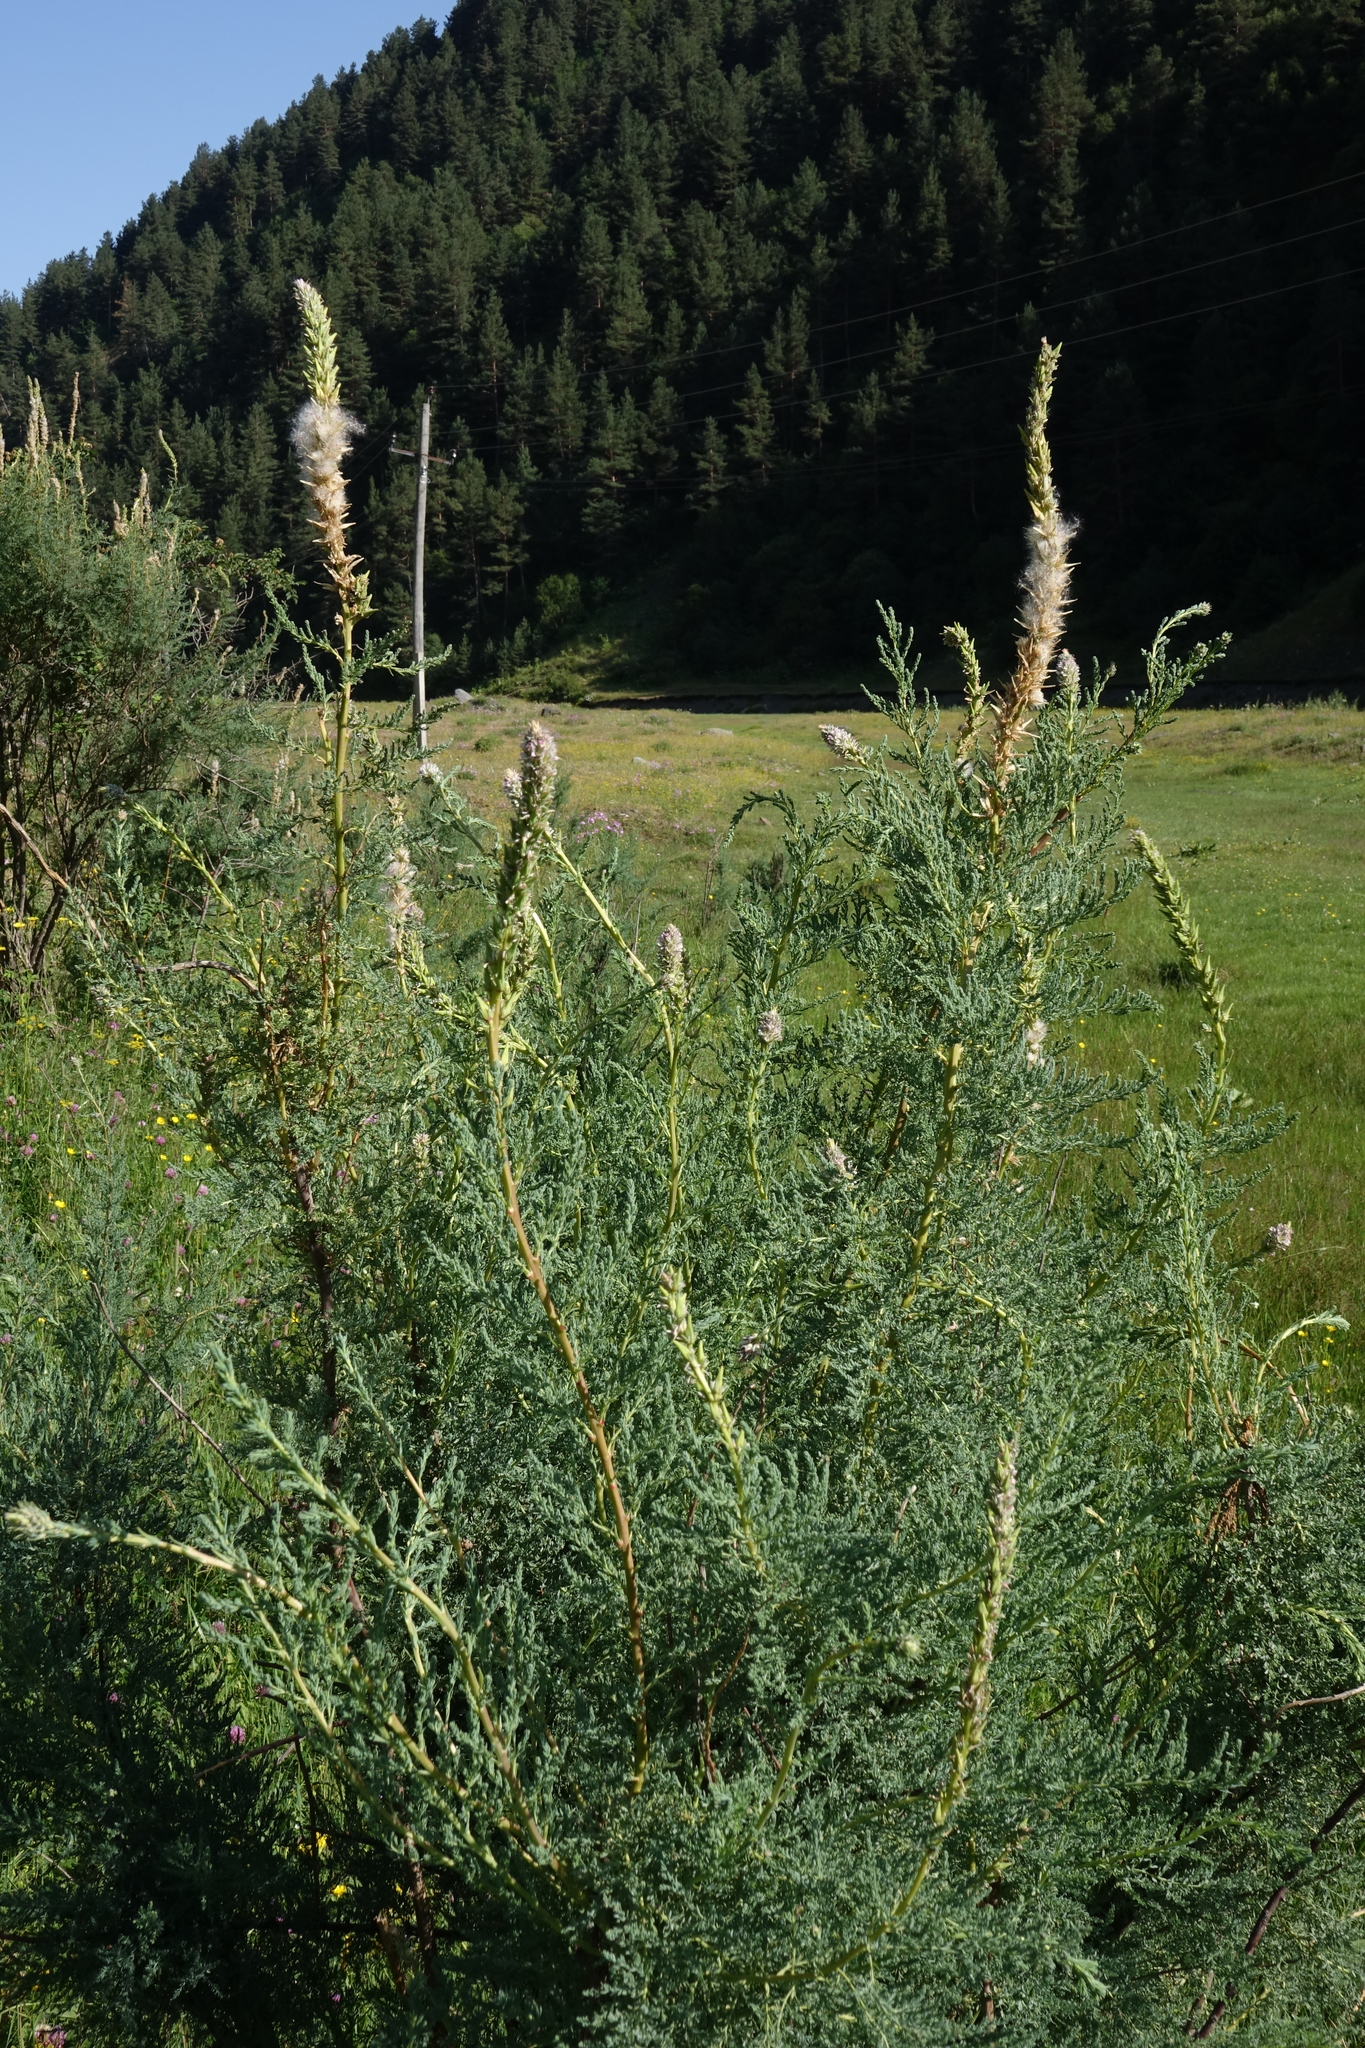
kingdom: Plantae
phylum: Tracheophyta
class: Magnoliopsida
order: Caryophyllales
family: Tamaricaceae
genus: Myricaria
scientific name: Myricaria bracteata
